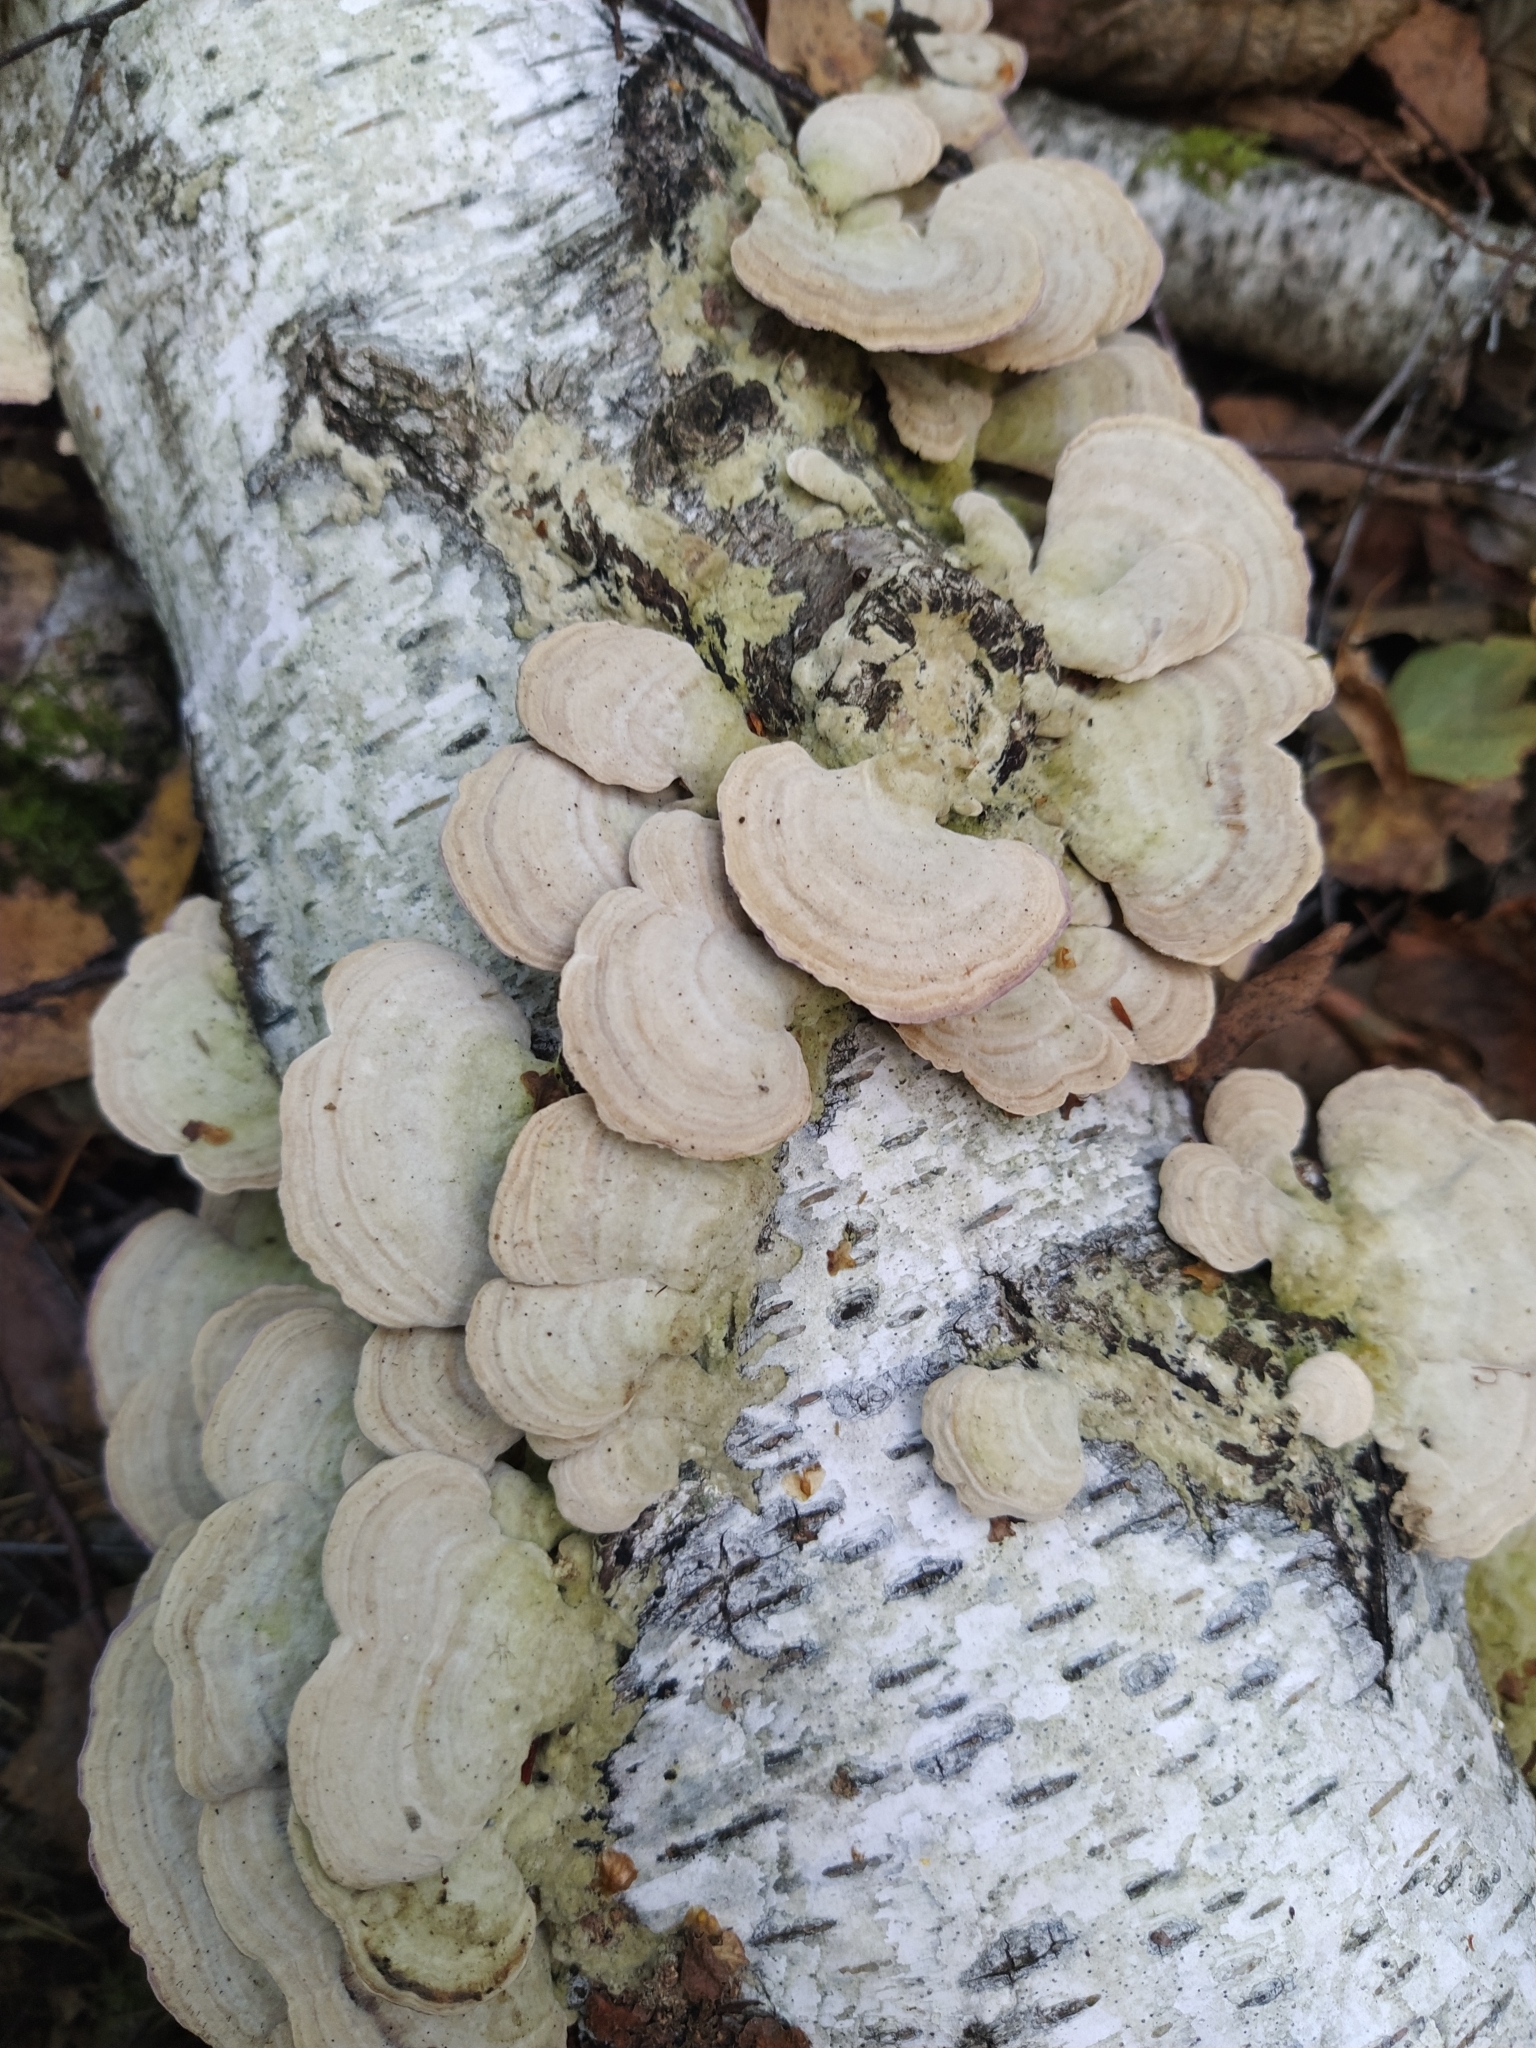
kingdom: Fungi
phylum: Basidiomycota
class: Agaricomycetes
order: Hymenochaetales
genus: Trichaptum
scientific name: Trichaptum biforme
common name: Violet-toothed polypore
